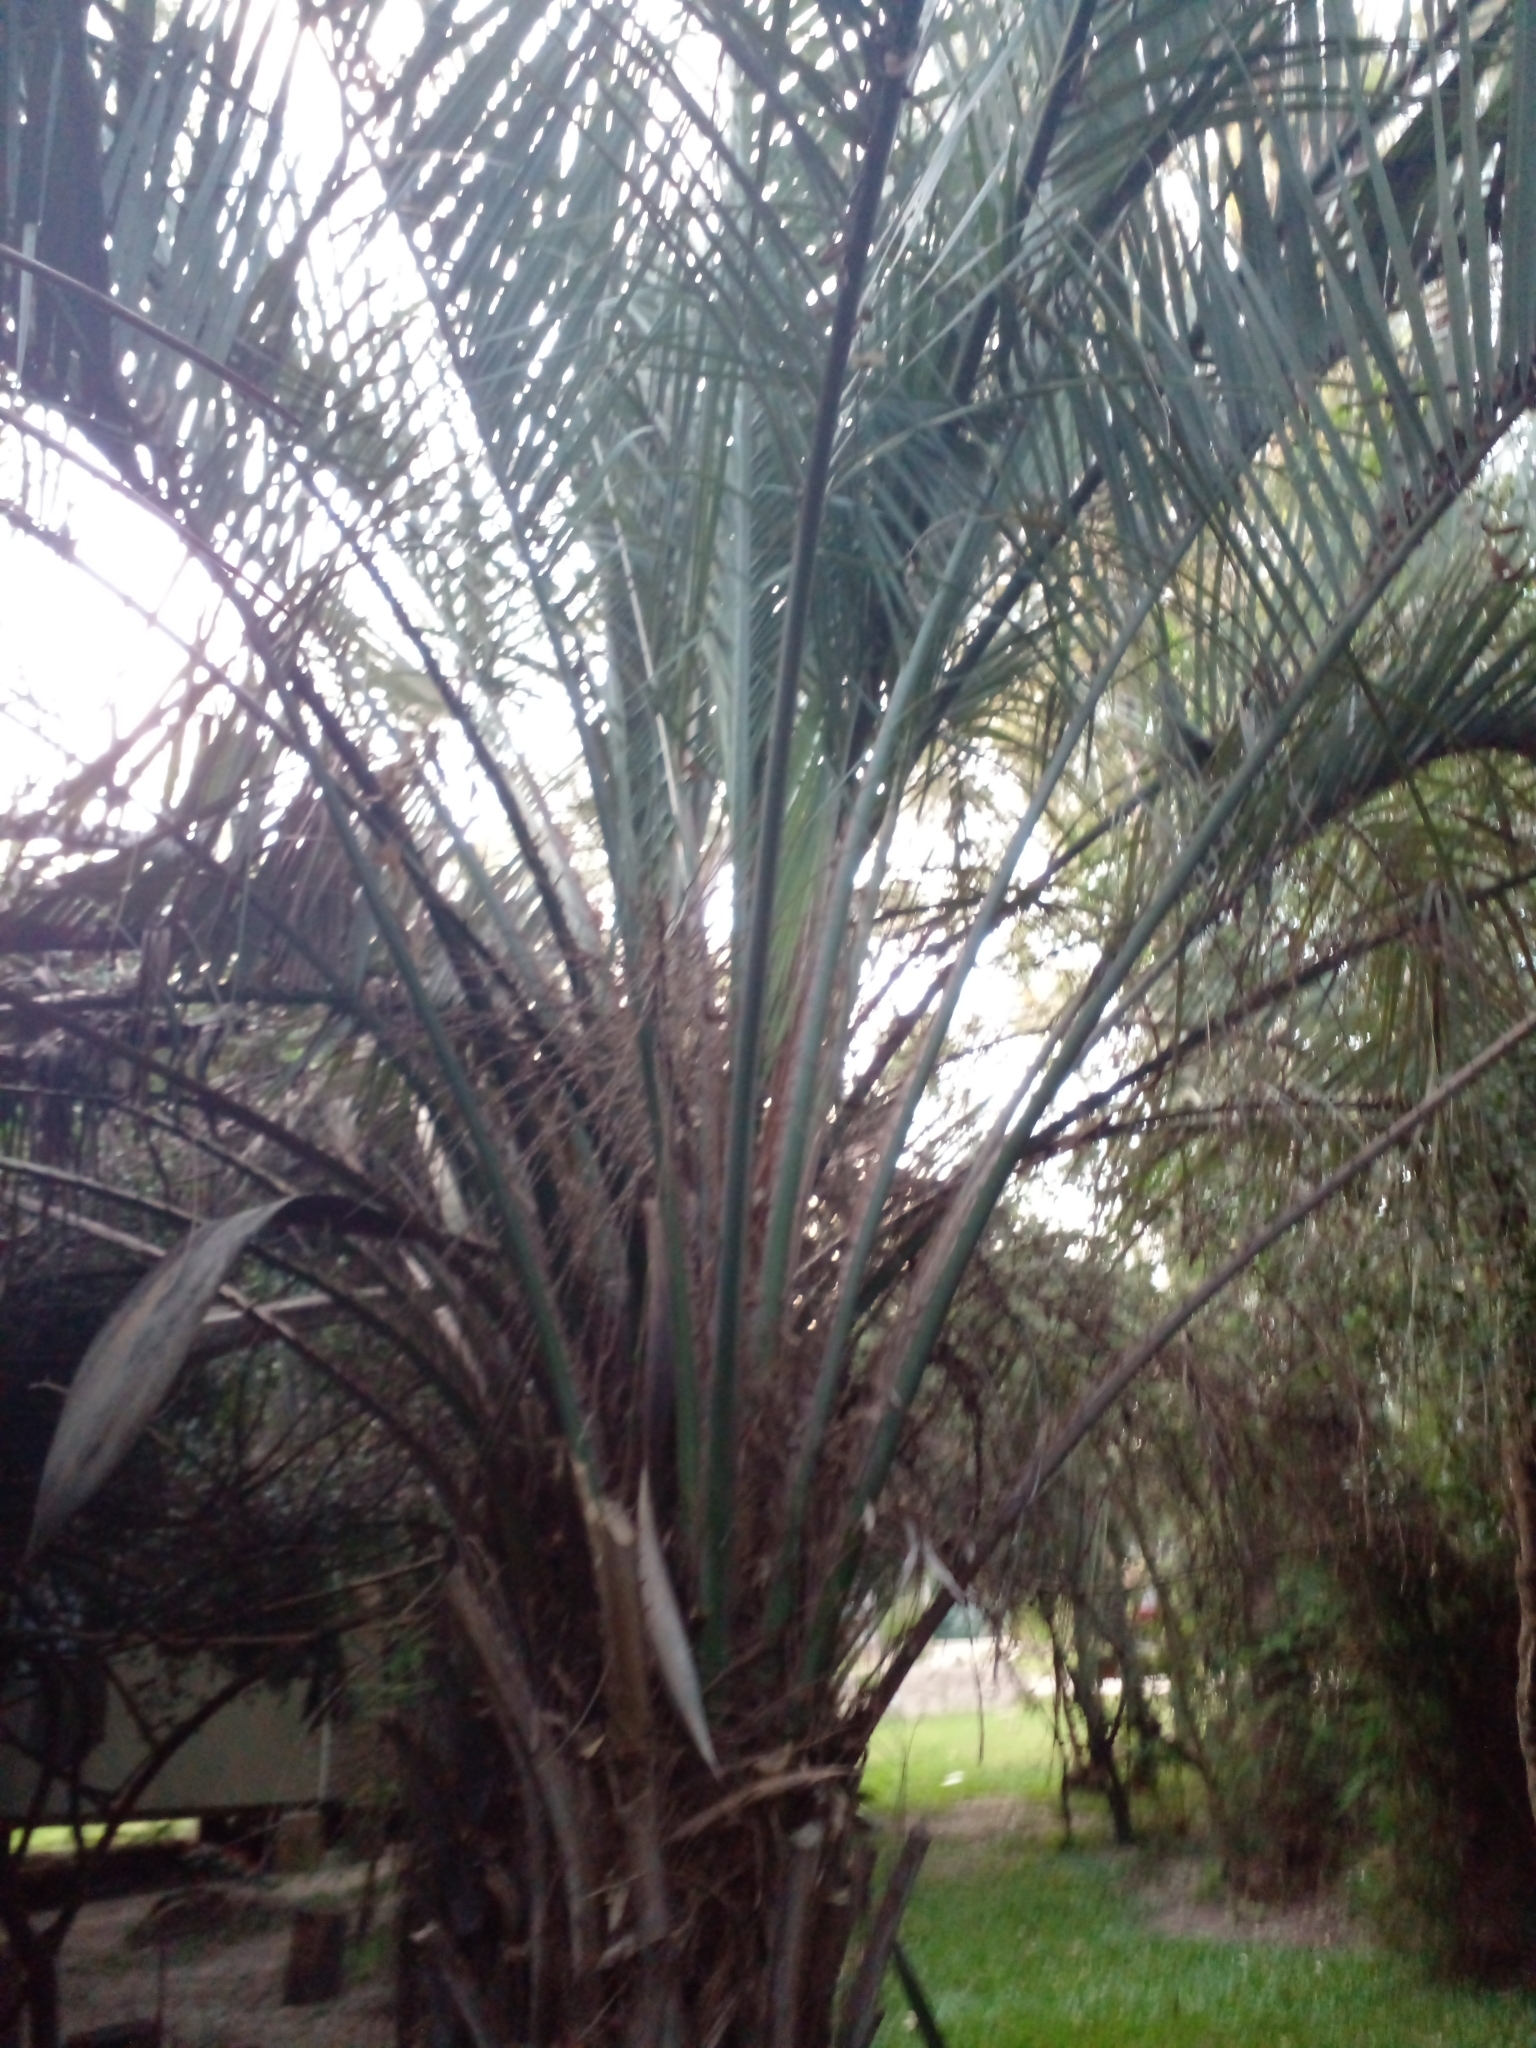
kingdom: Plantae
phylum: Tracheophyta
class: Liliopsida
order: Arecales
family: Arecaceae
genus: Butia
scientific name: Butia odorata
